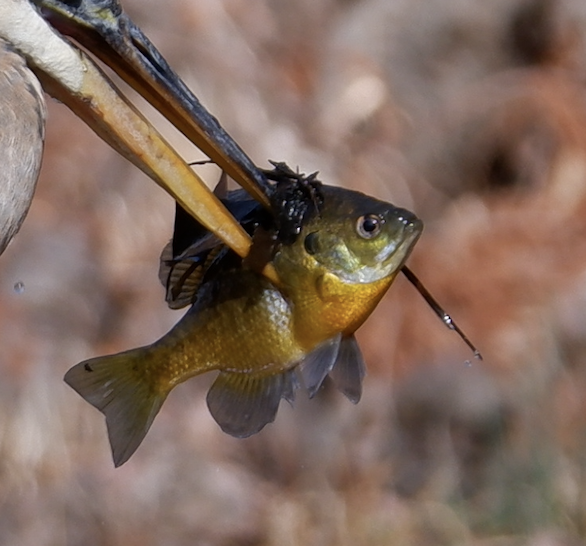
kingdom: Animalia
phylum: Chordata
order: Perciformes
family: Centrarchidae
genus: Lepomis
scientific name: Lepomis macrochirus
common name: Bluegill
